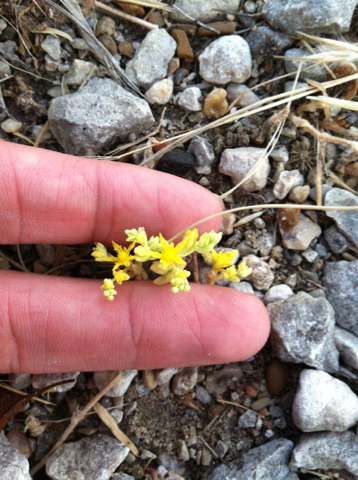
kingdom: Plantae
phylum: Tracheophyta
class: Magnoliopsida
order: Saxifragales
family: Crassulaceae
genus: Sedum
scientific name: Sedum nuttallii
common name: Yellow stonecrop
